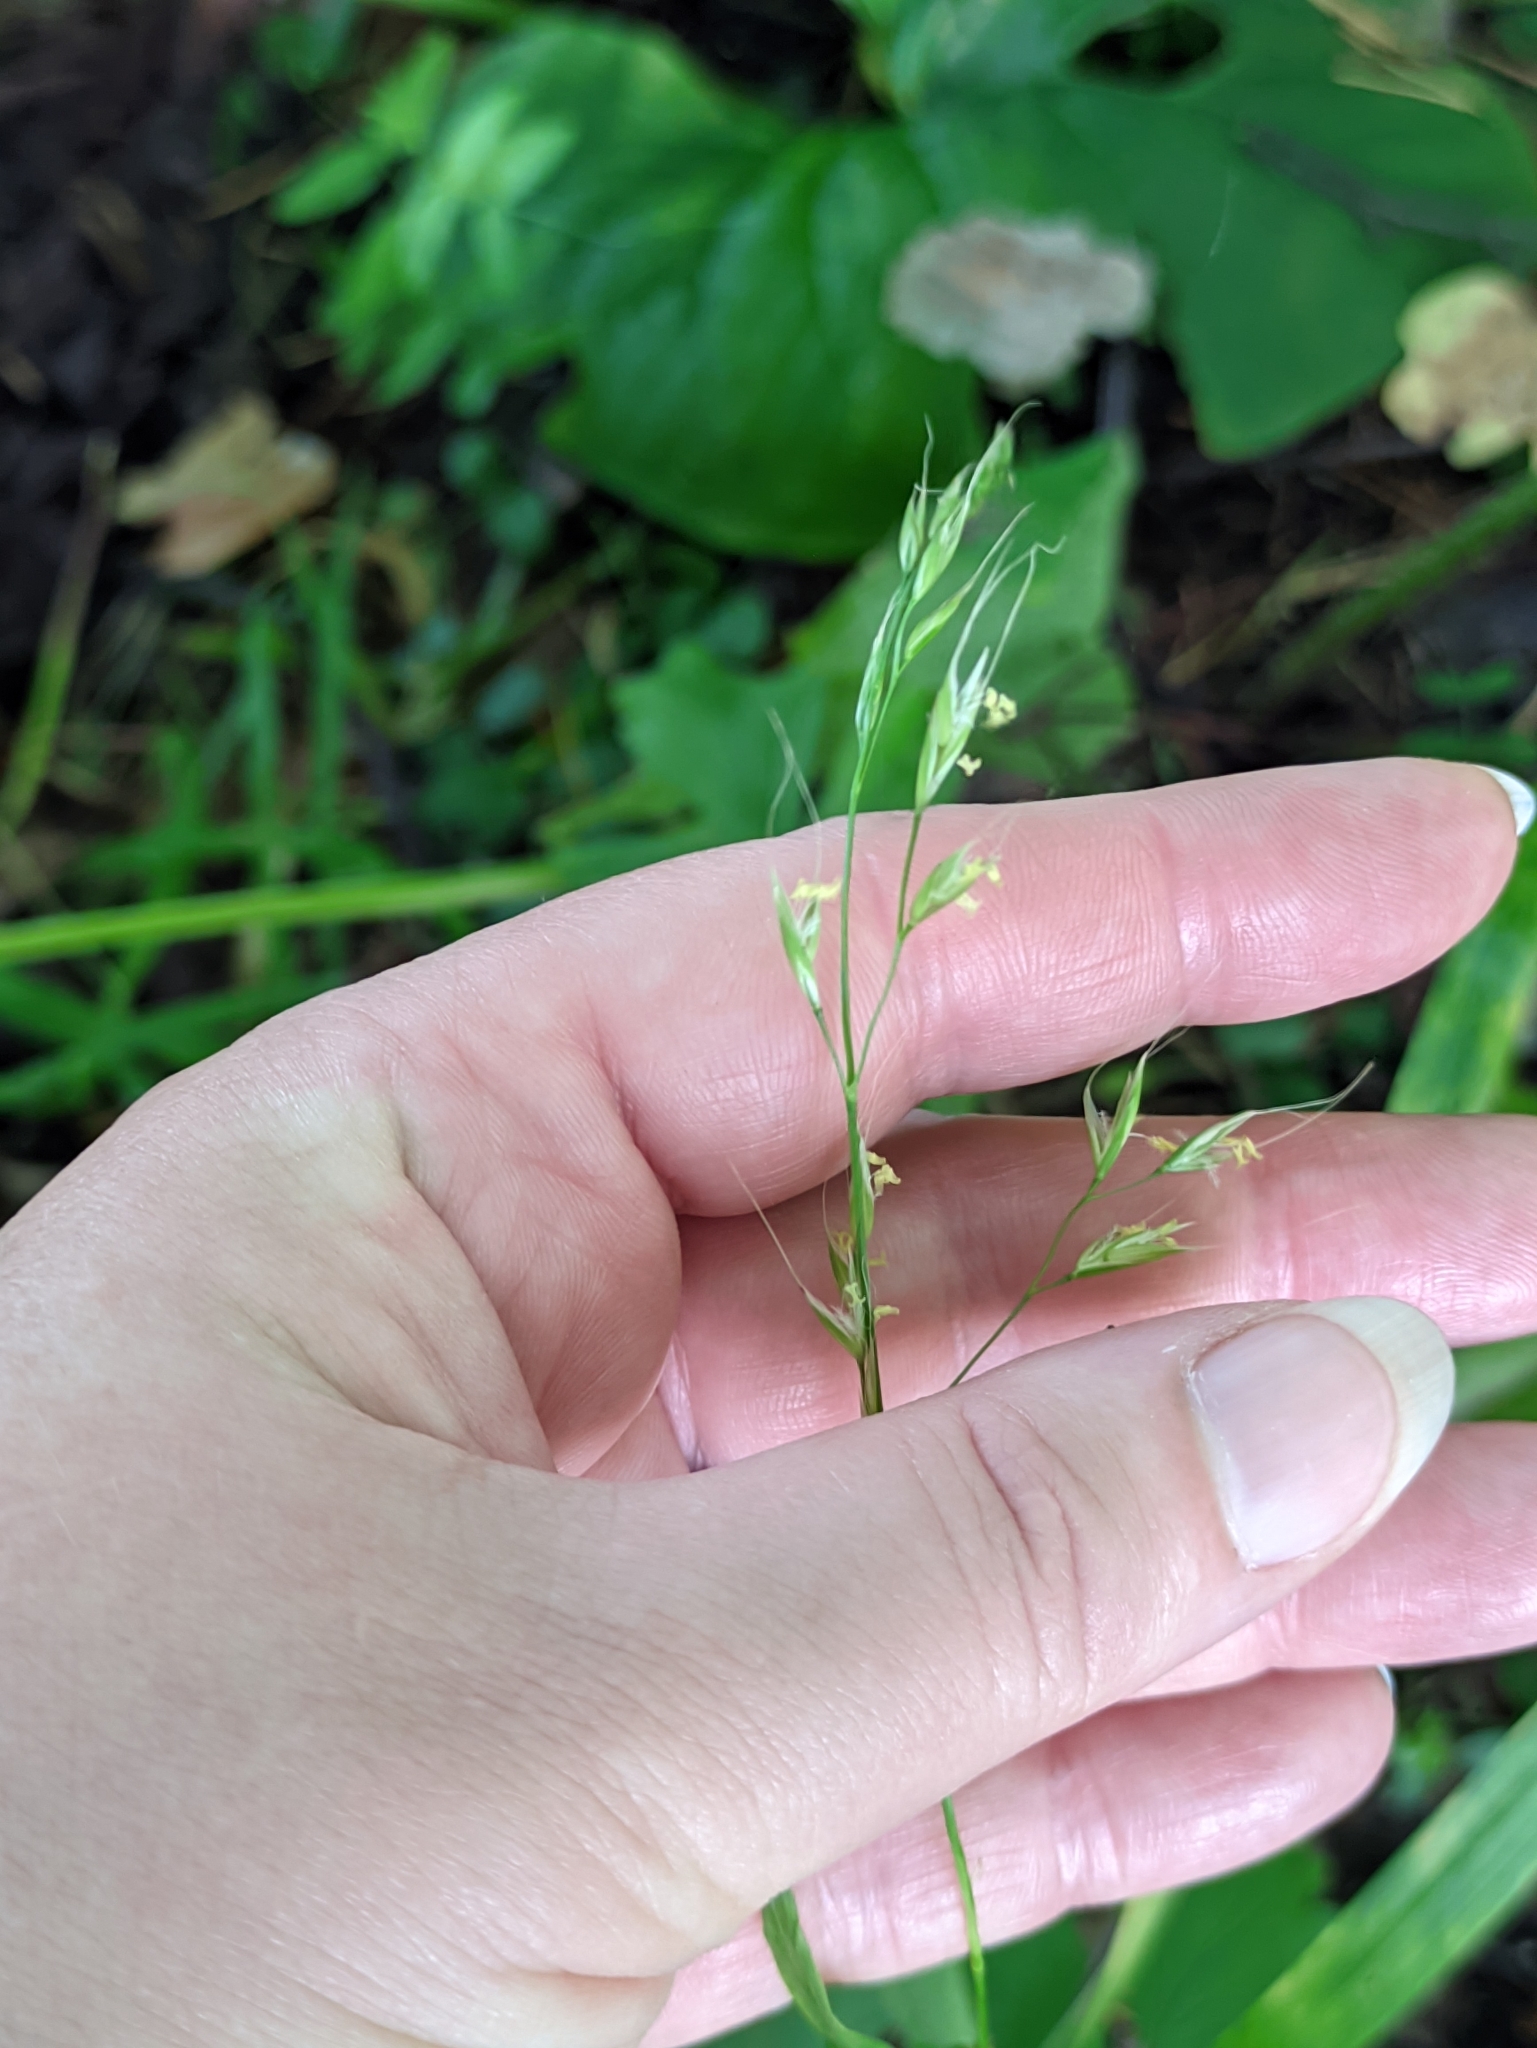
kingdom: Plantae
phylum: Tracheophyta
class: Liliopsida
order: Poales
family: Poaceae
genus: Lolium
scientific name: Lolium giganteum
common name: Giant fescue
